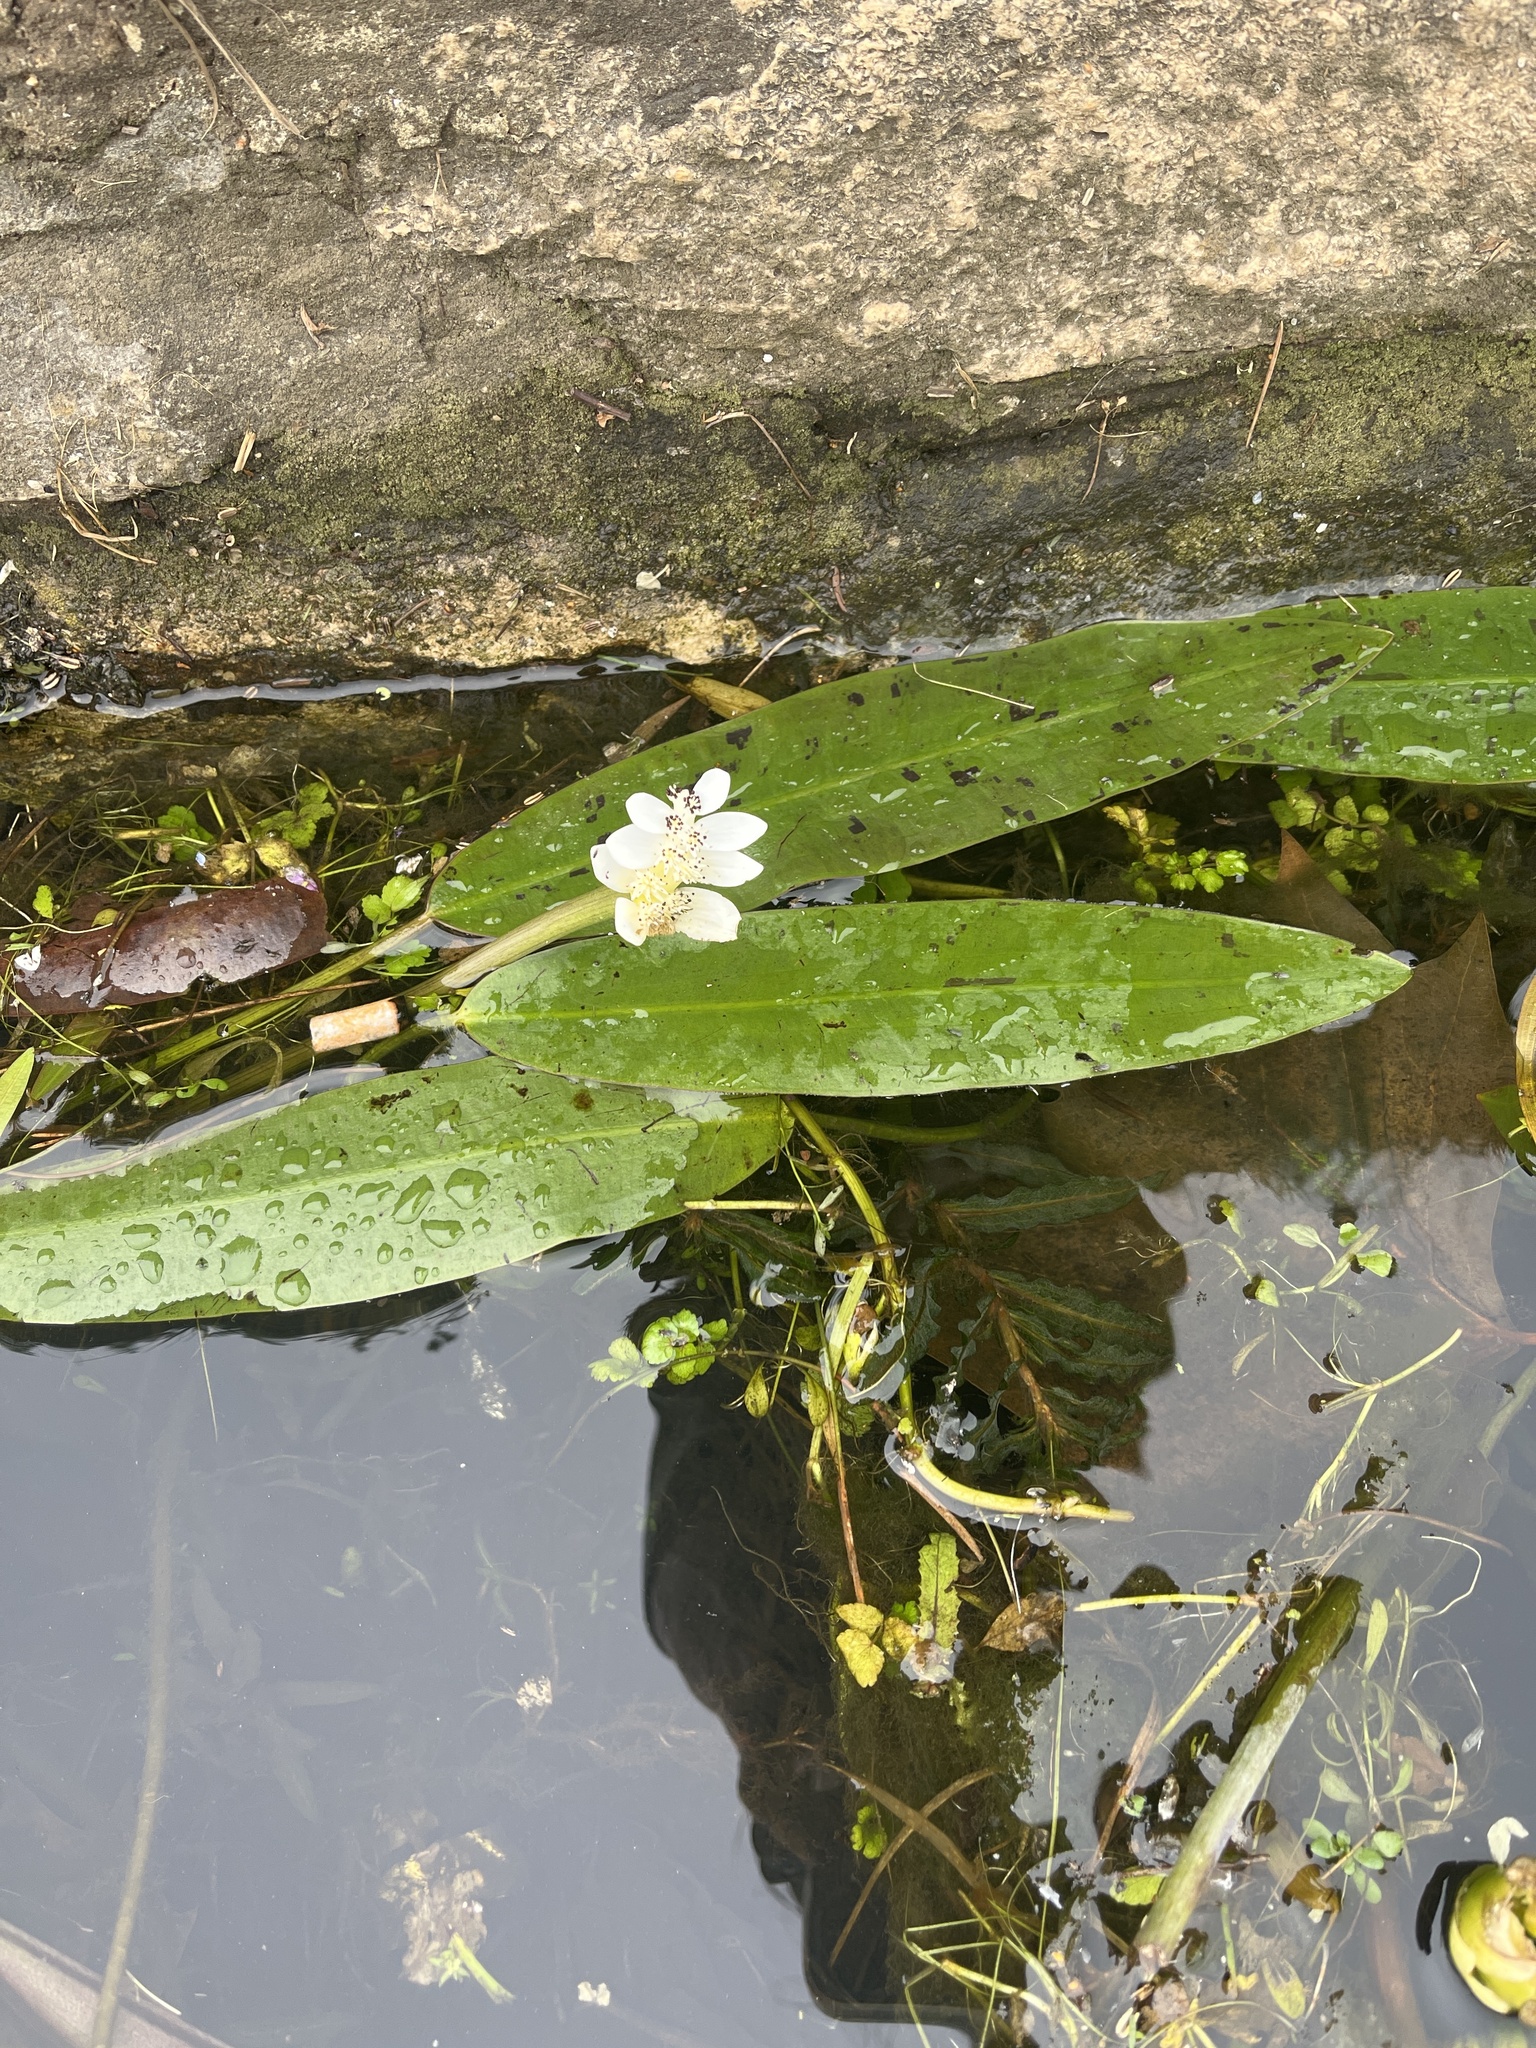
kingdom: Plantae
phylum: Tracheophyta
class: Liliopsida
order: Alismatales
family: Aponogetonaceae
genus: Aponogeton
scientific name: Aponogeton distachyos
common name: Cape-pondweed
